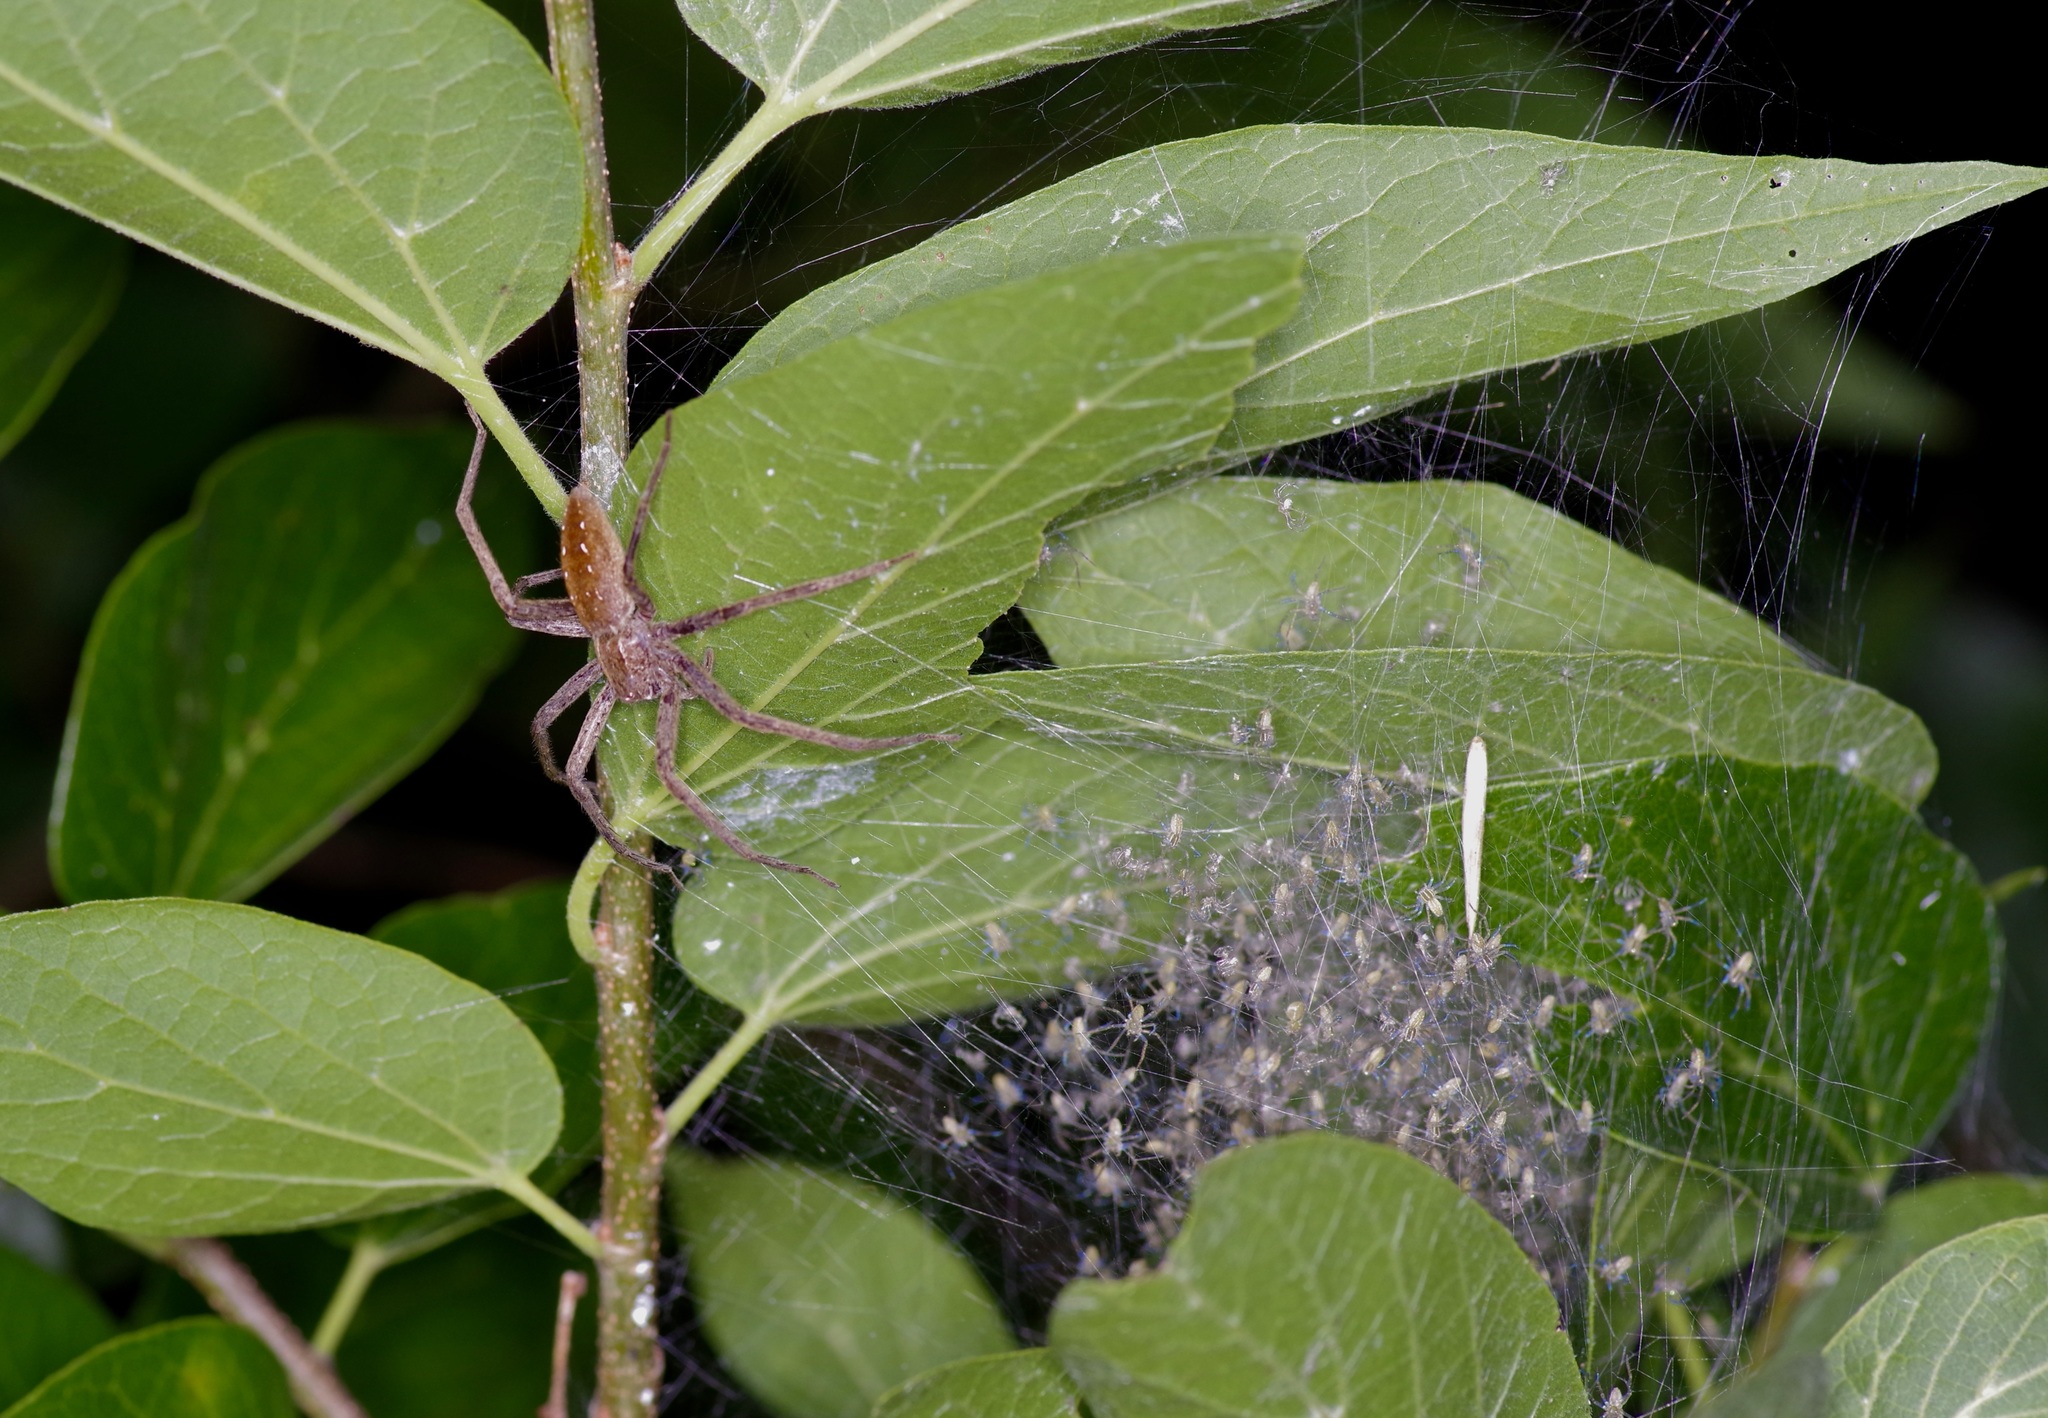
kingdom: Animalia
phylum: Arthropoda
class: Arachnida
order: Araneae
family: Pisauridae
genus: Pisaurina
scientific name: Pisaurina mira
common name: American nursery web spider
